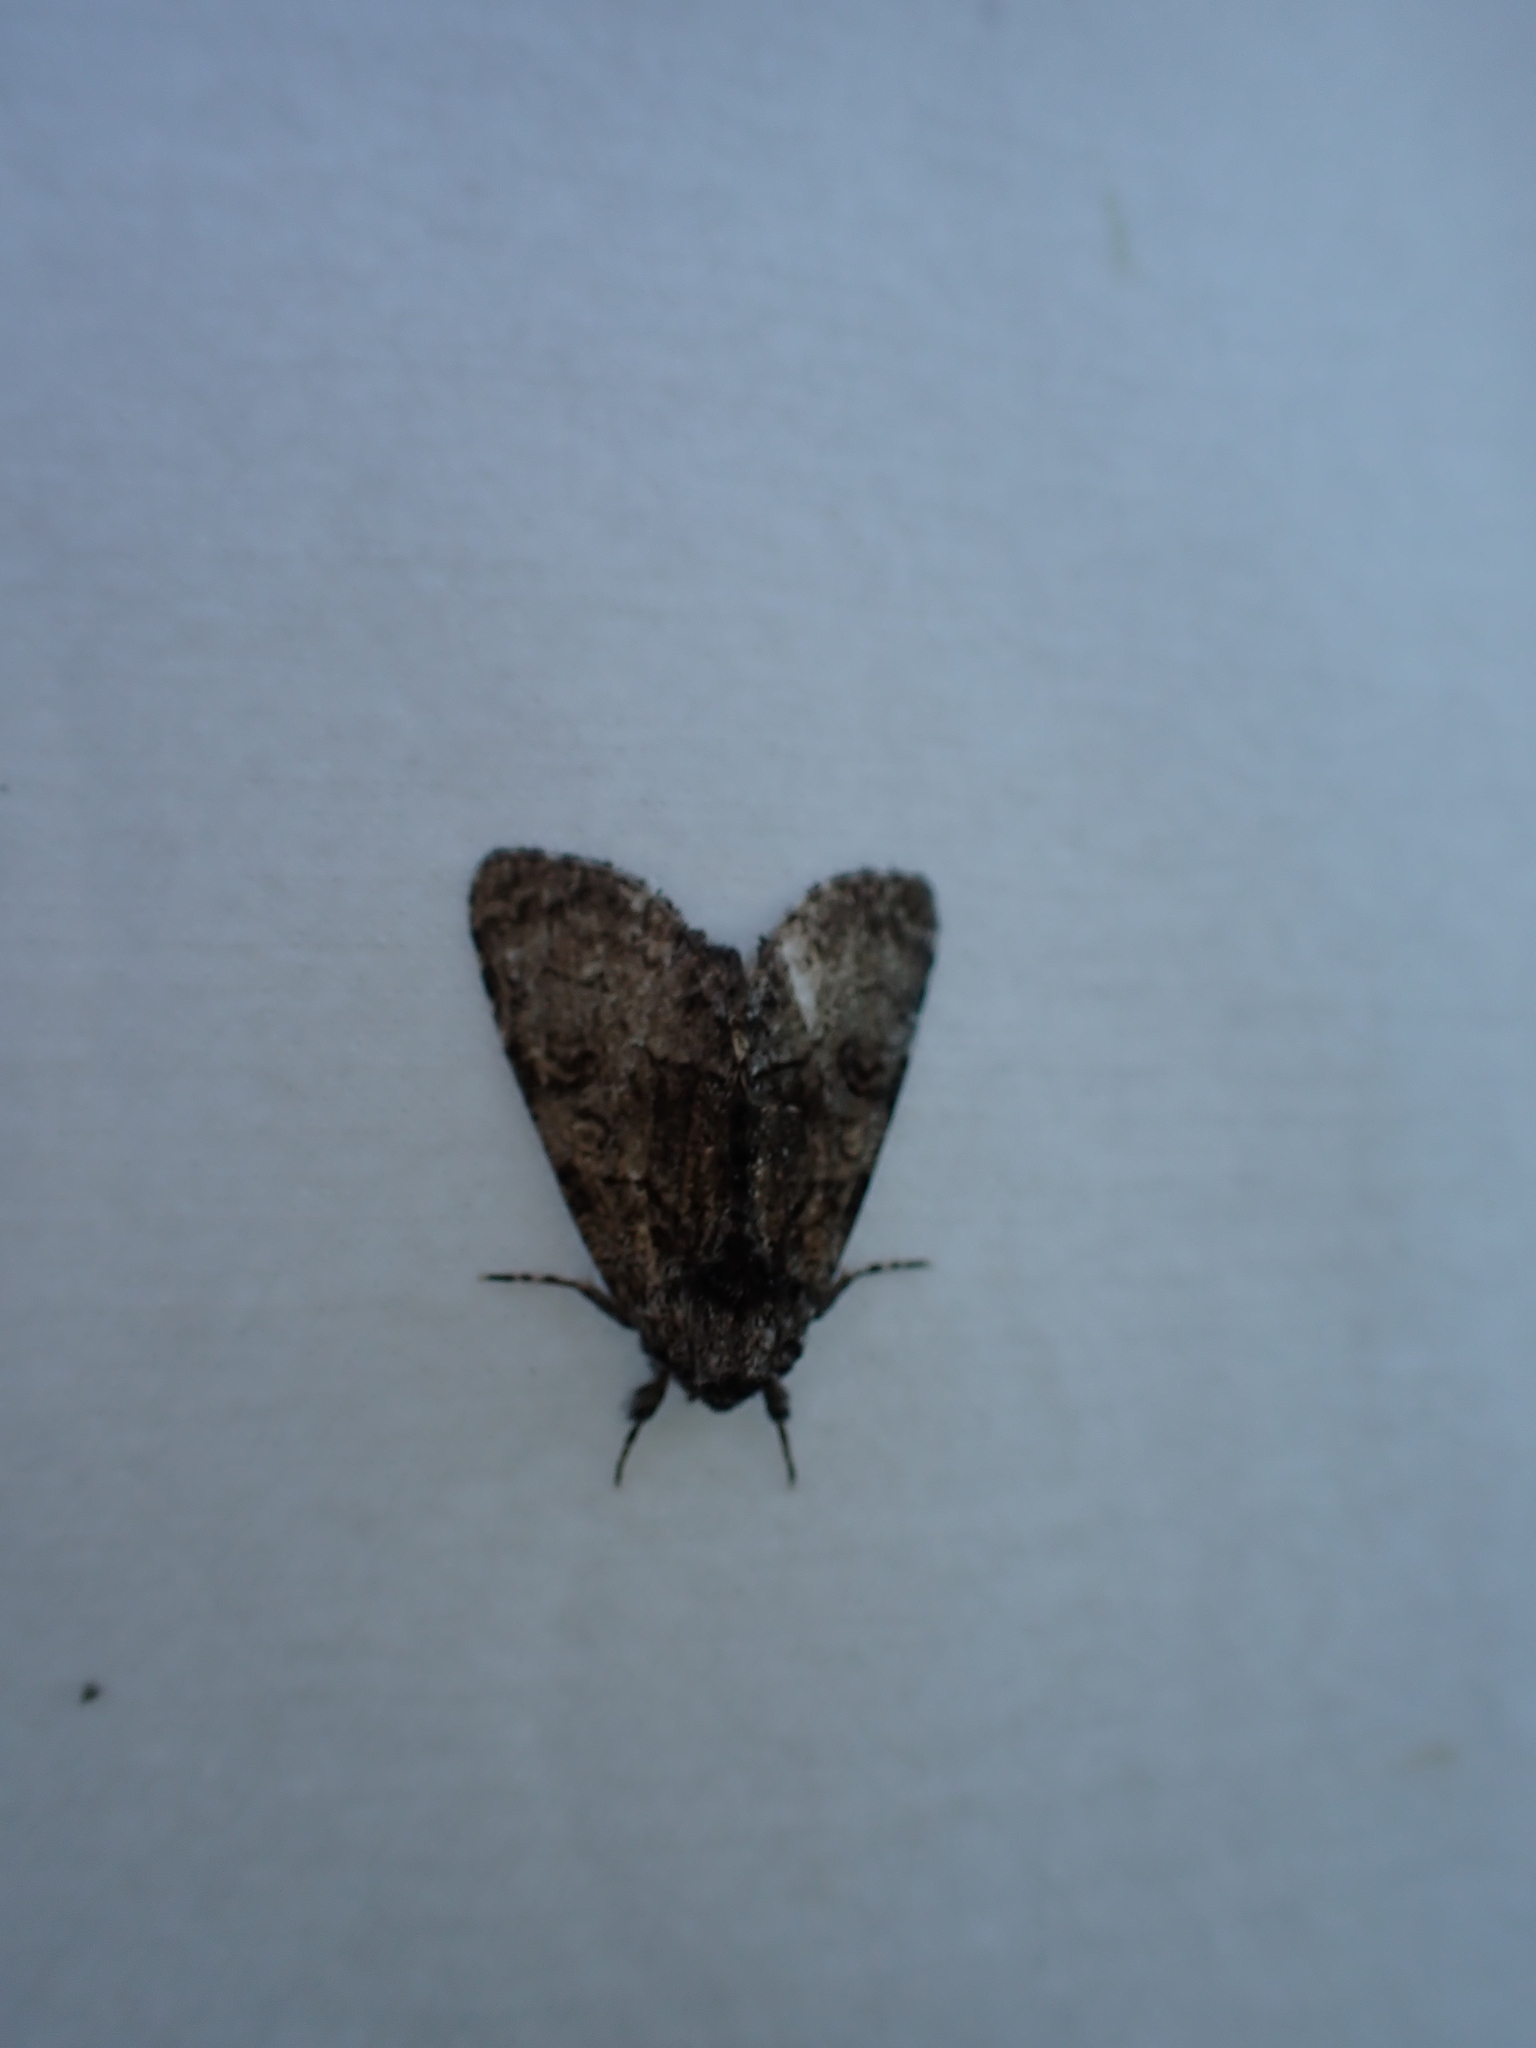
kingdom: Animalia
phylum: Arthropoda
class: Insecta
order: Lepidoptera
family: Noctuidae
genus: Raphia
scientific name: Raphia frater
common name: Brother
